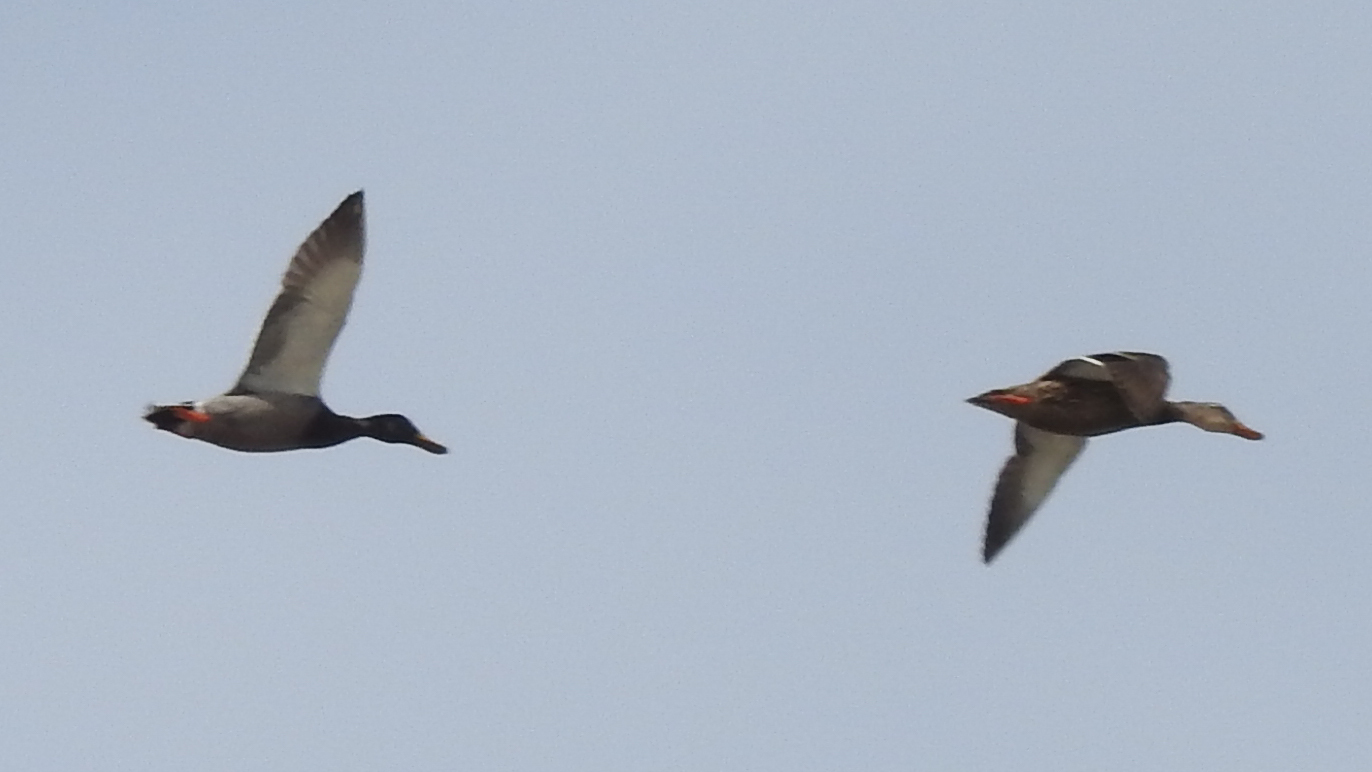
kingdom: Animalia
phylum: Chordata
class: Aves
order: Anseriformes
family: Anatidae
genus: Anas
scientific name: Anas platyrhynchos
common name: Mallard
